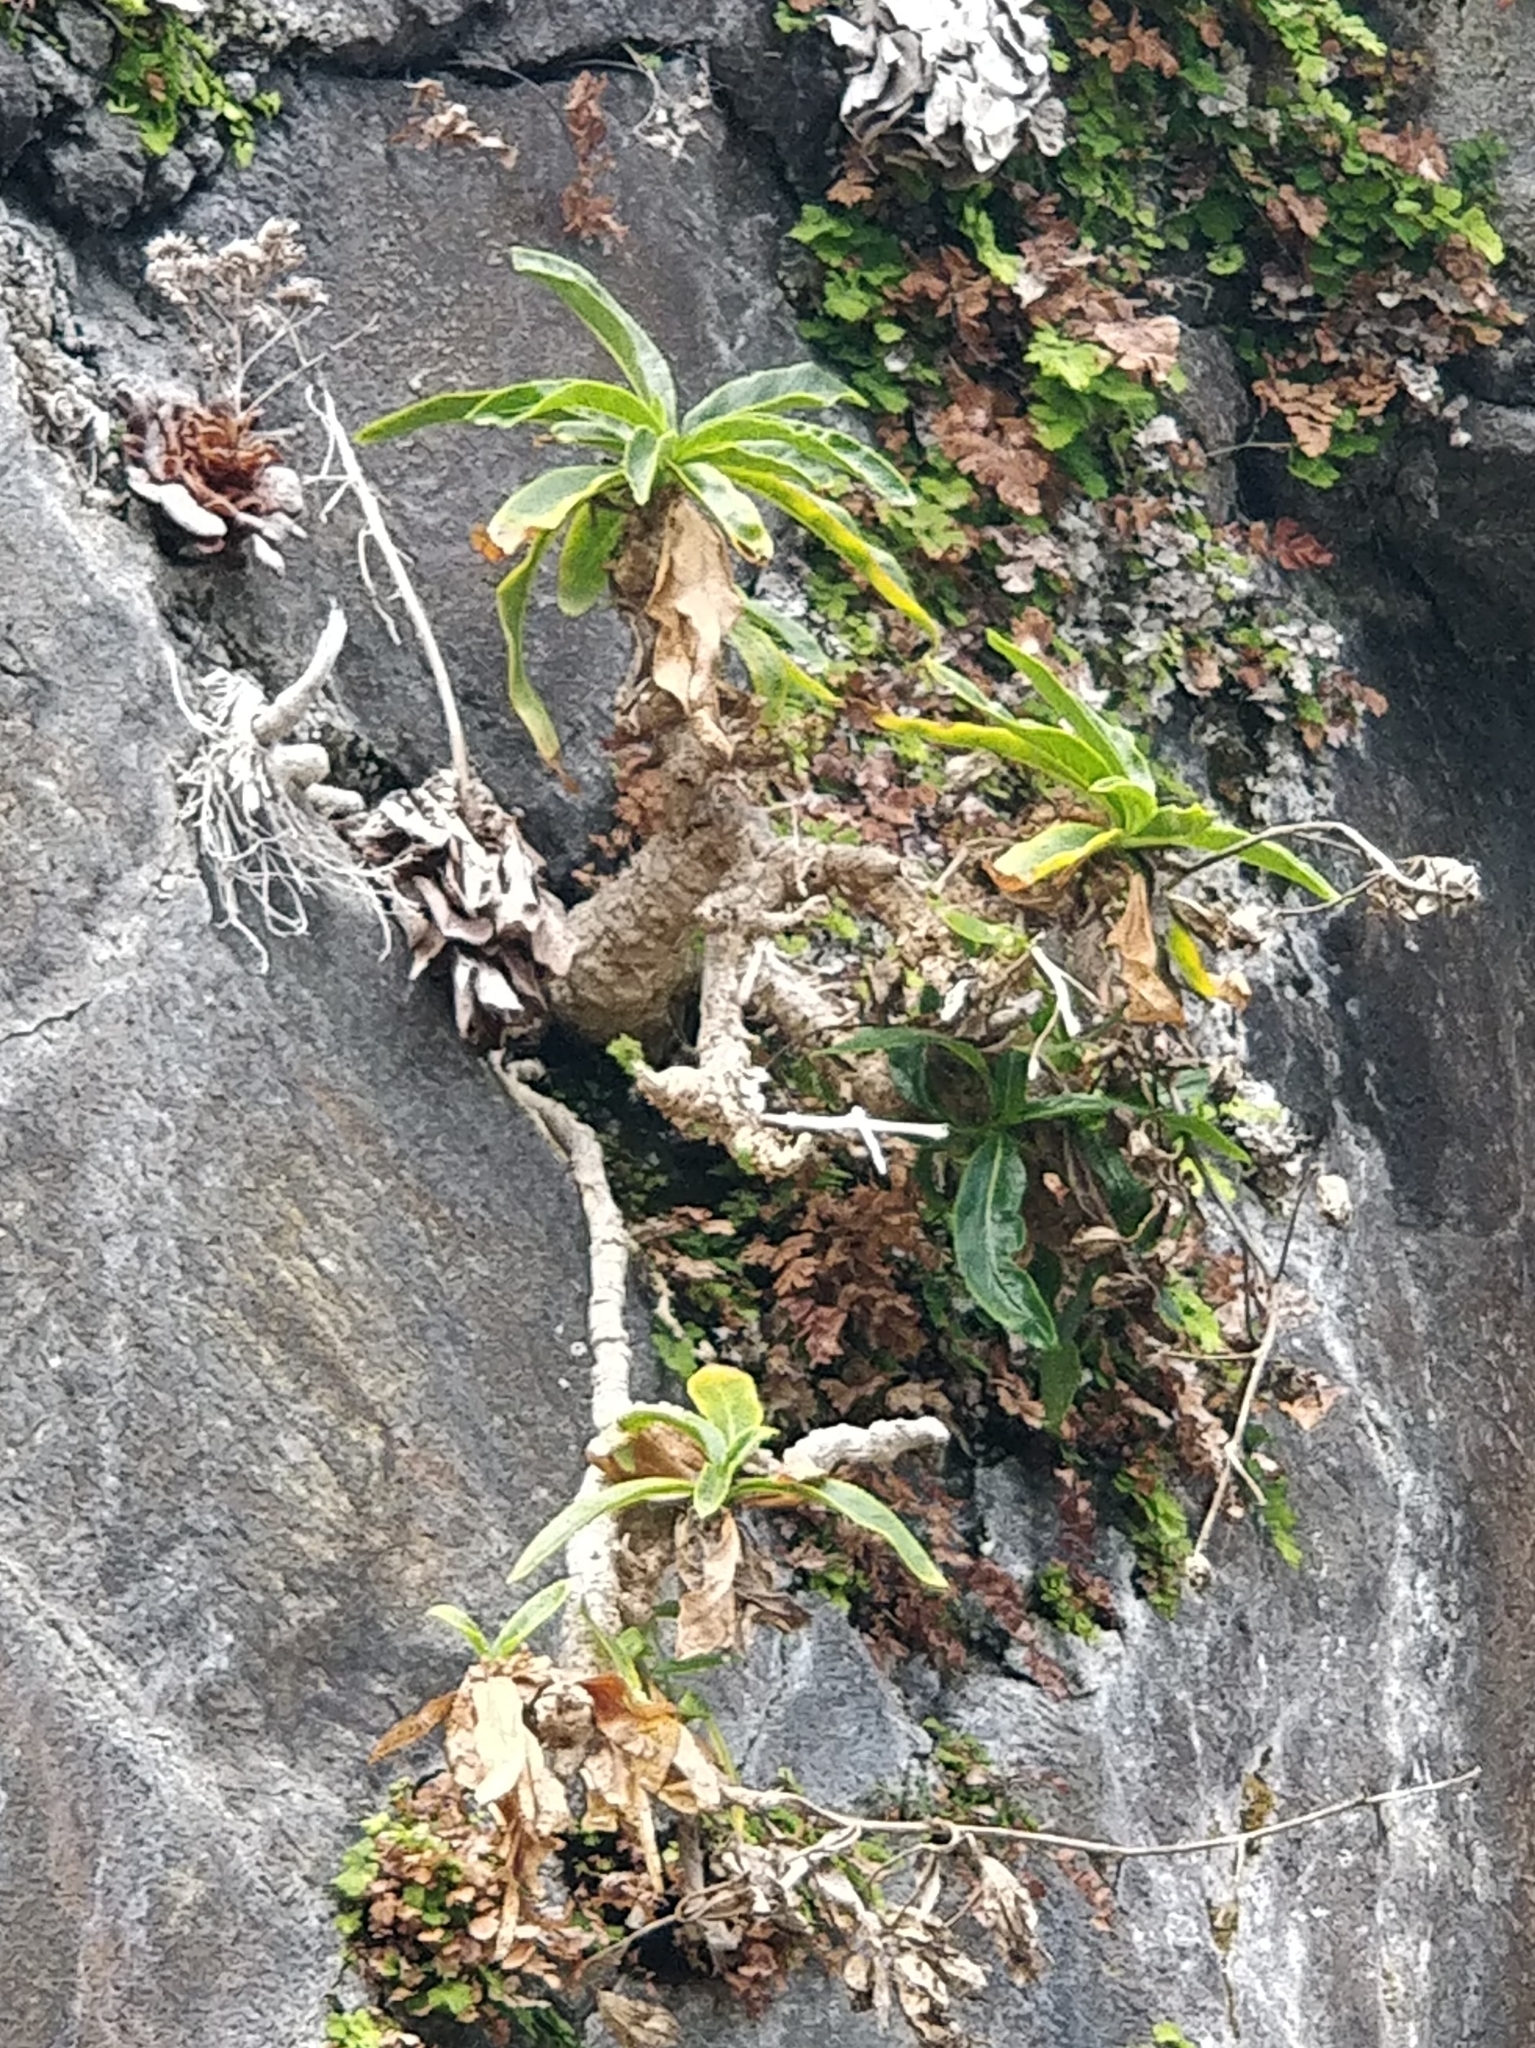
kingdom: Plantae
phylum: Tracheophyta
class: Magnoliopsida
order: Asterales
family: Campanulaceae
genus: Musschia
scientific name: Musschia aurea
